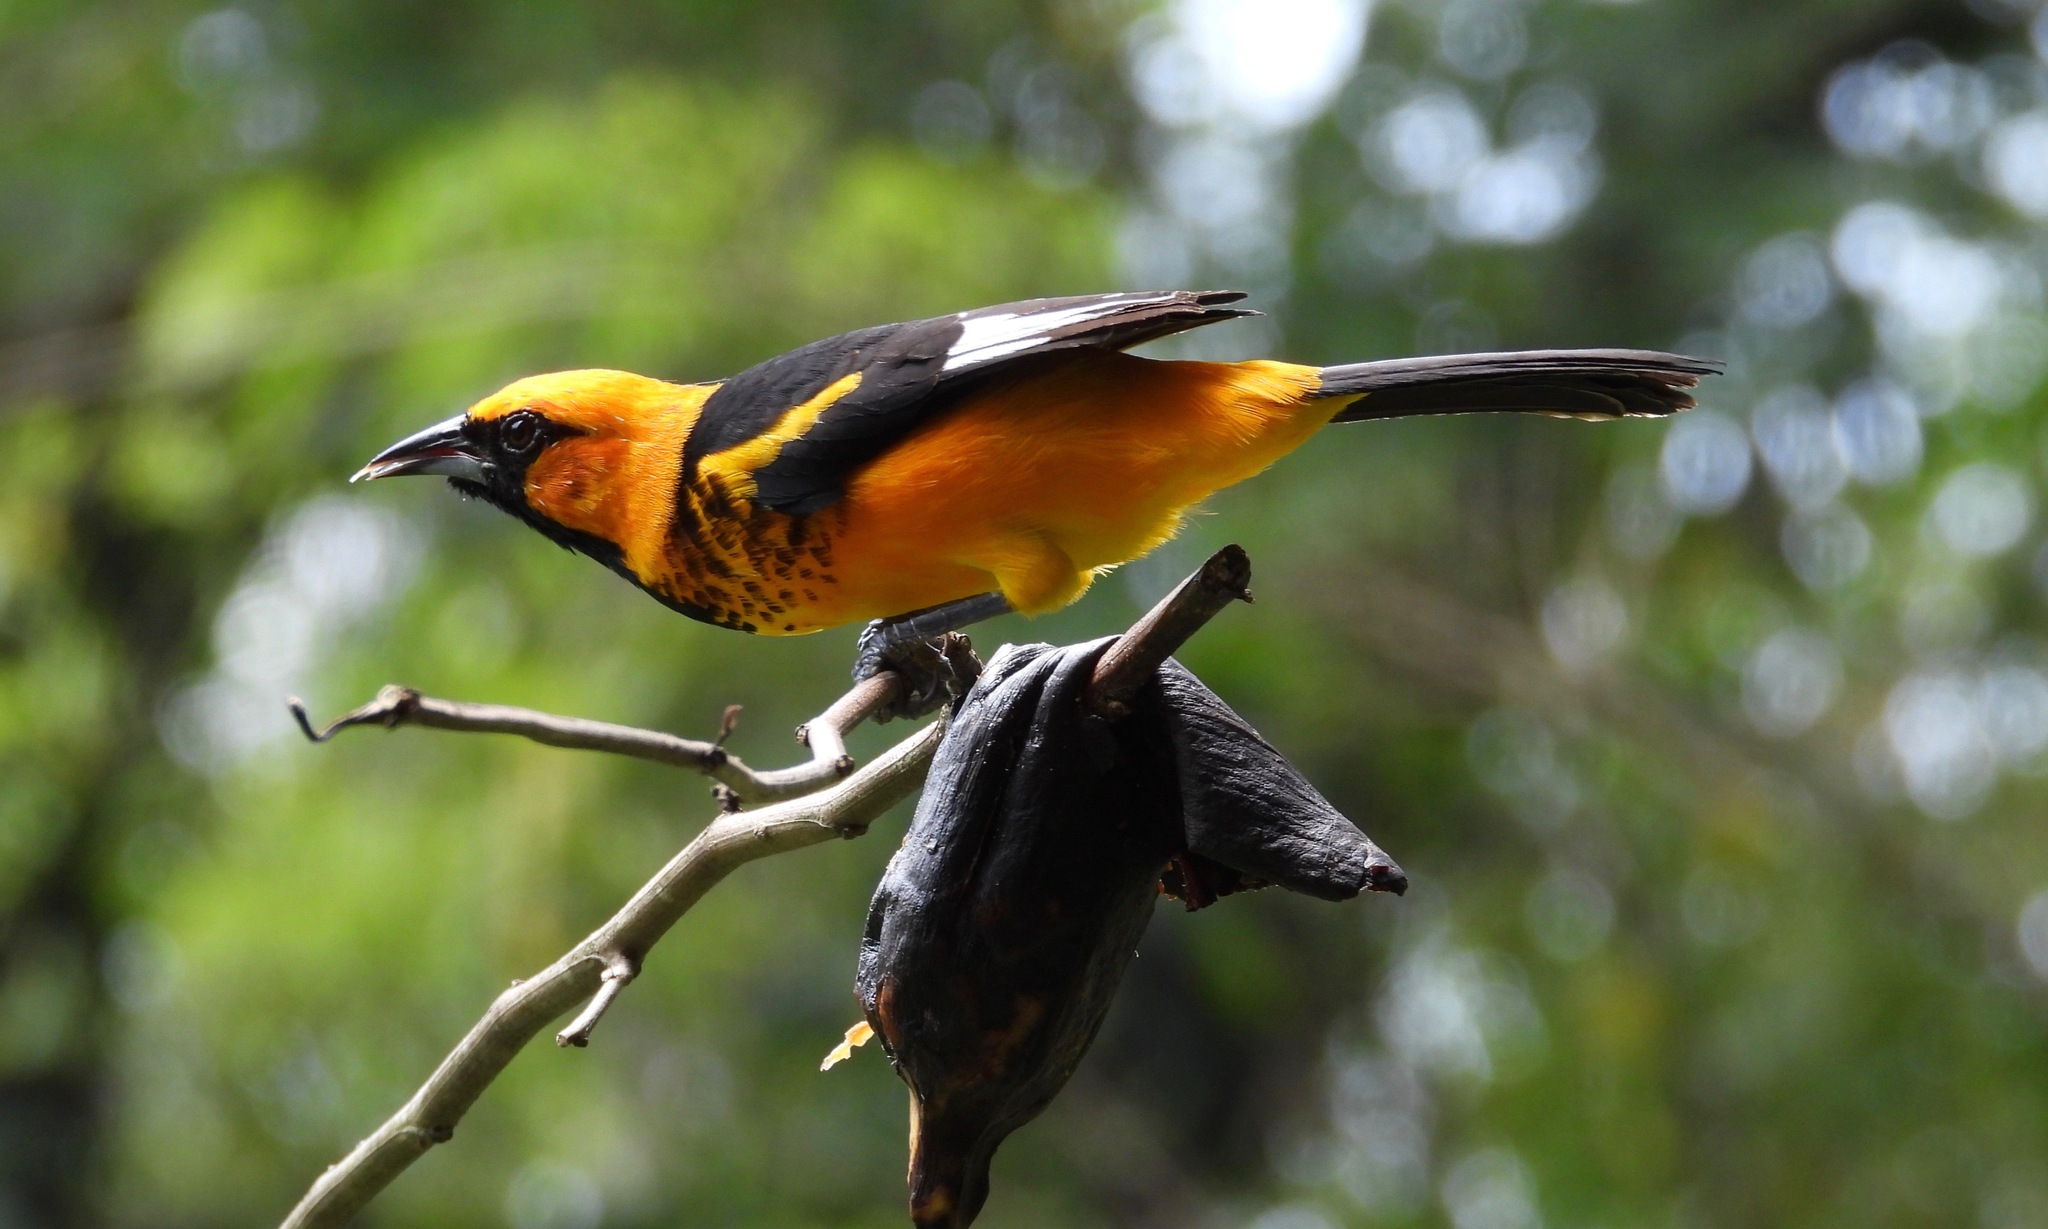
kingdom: Animalia
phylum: Chordata
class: Aves
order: Passeriformes
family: Icteridae
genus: Icterus
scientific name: Icterus pectoralis
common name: Spot-breasted oriole
